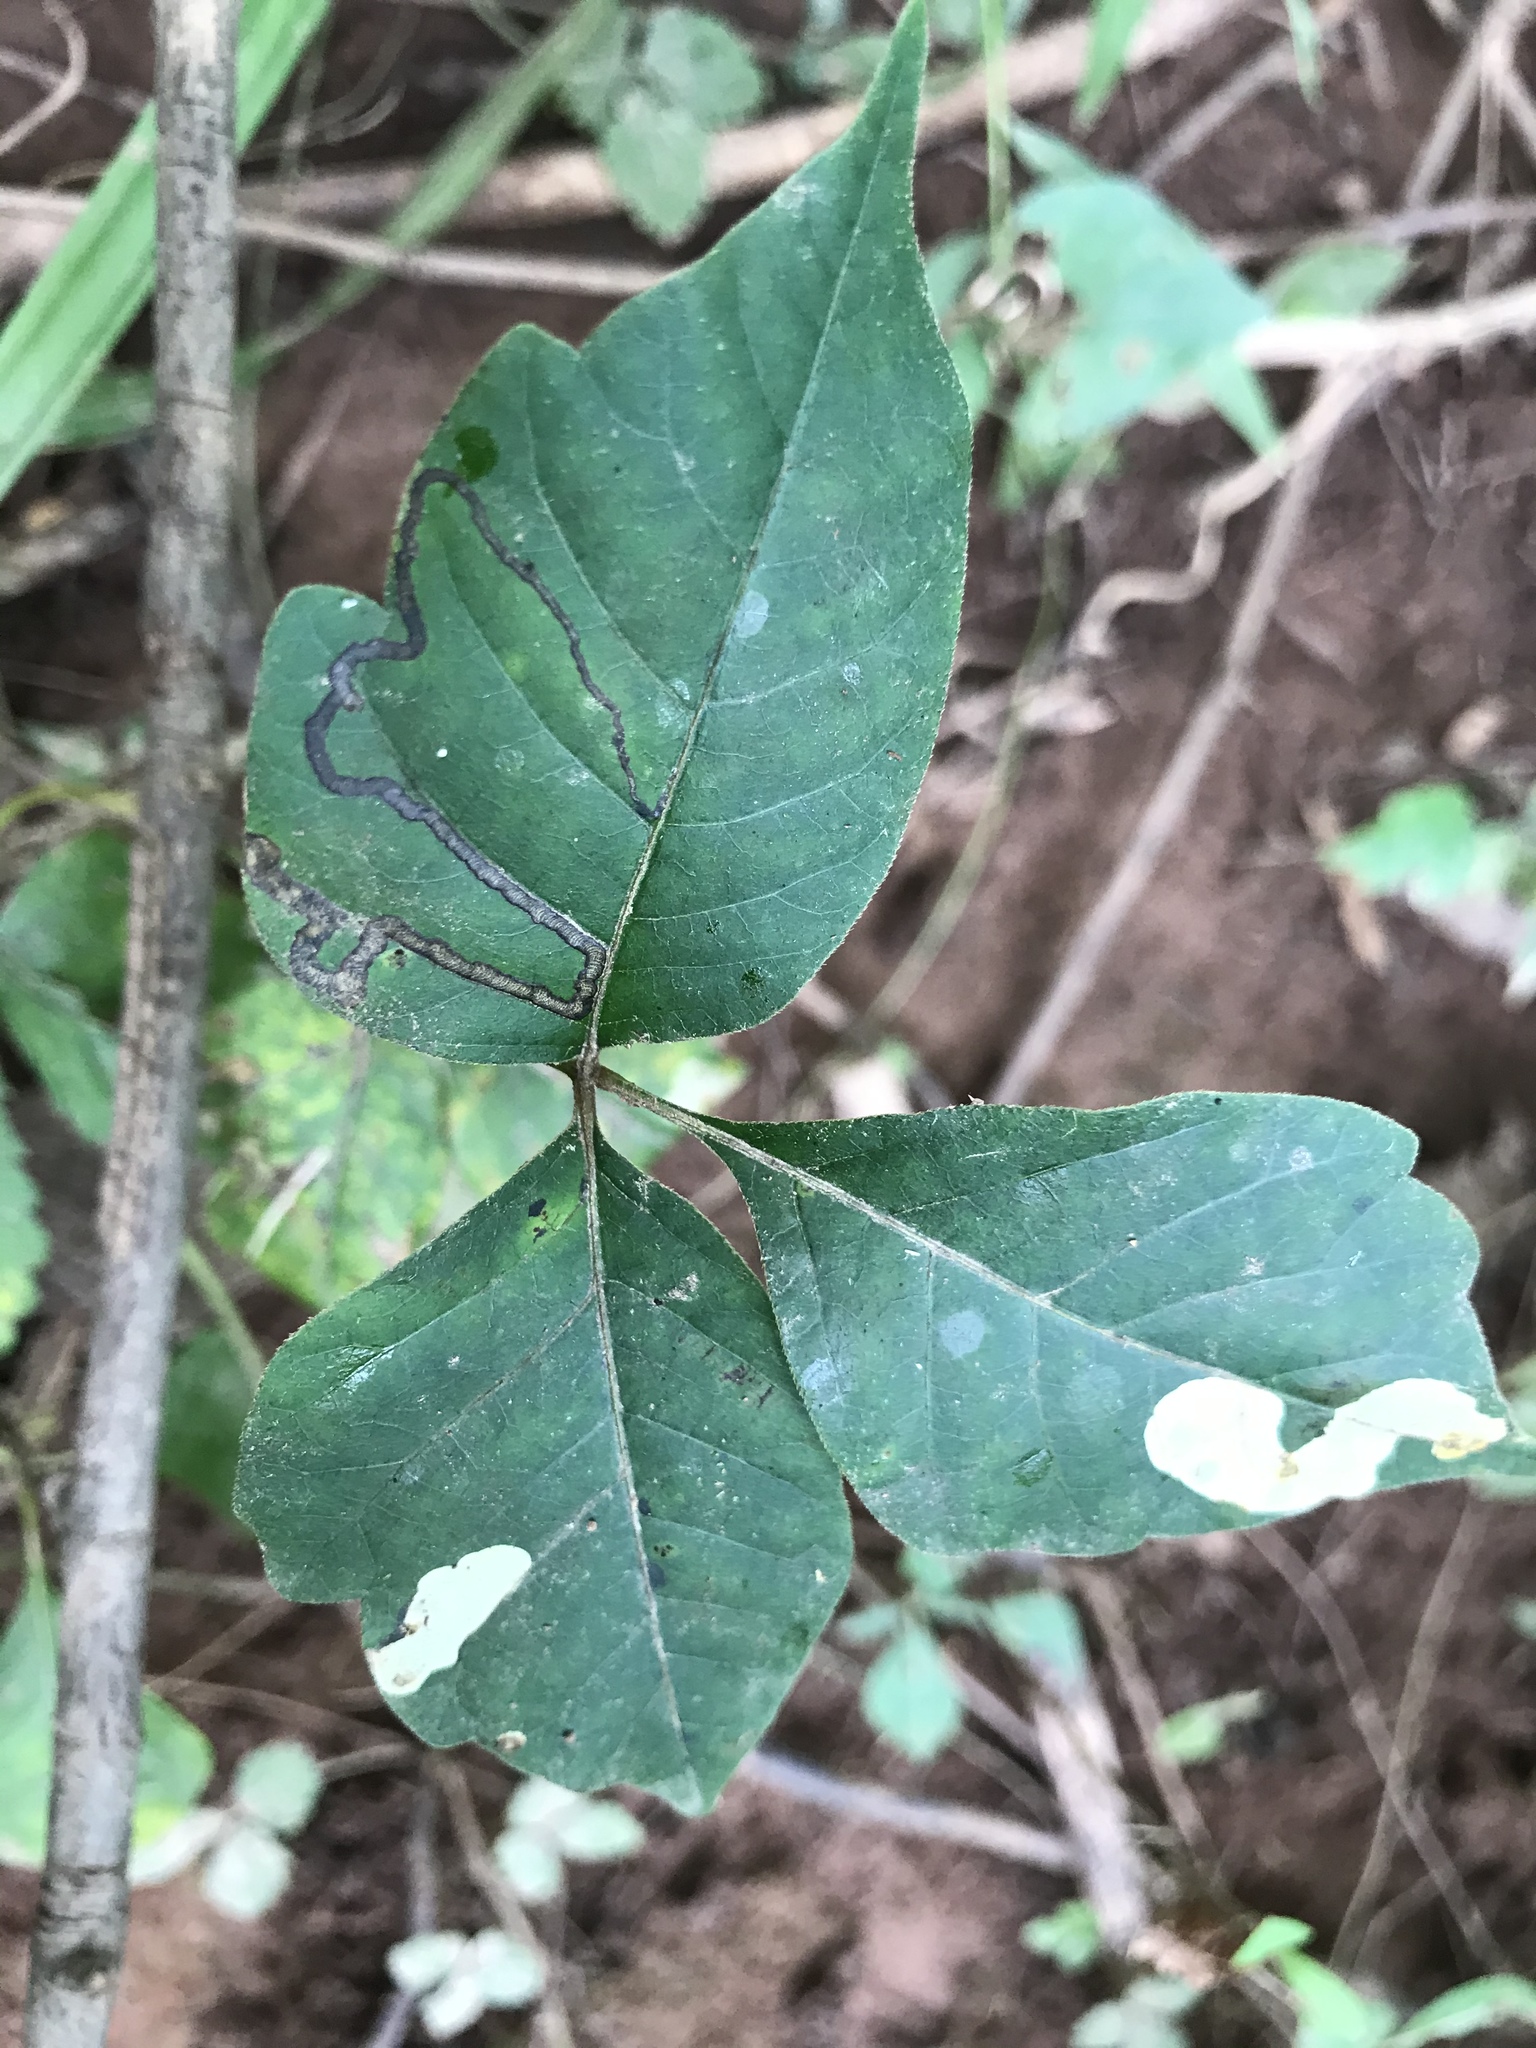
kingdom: Animalia
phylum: Arthropoda
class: Insecta
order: Lepidoptera
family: Nepticulidae
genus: Stigmella
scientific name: Stigmella rhoifoliella
